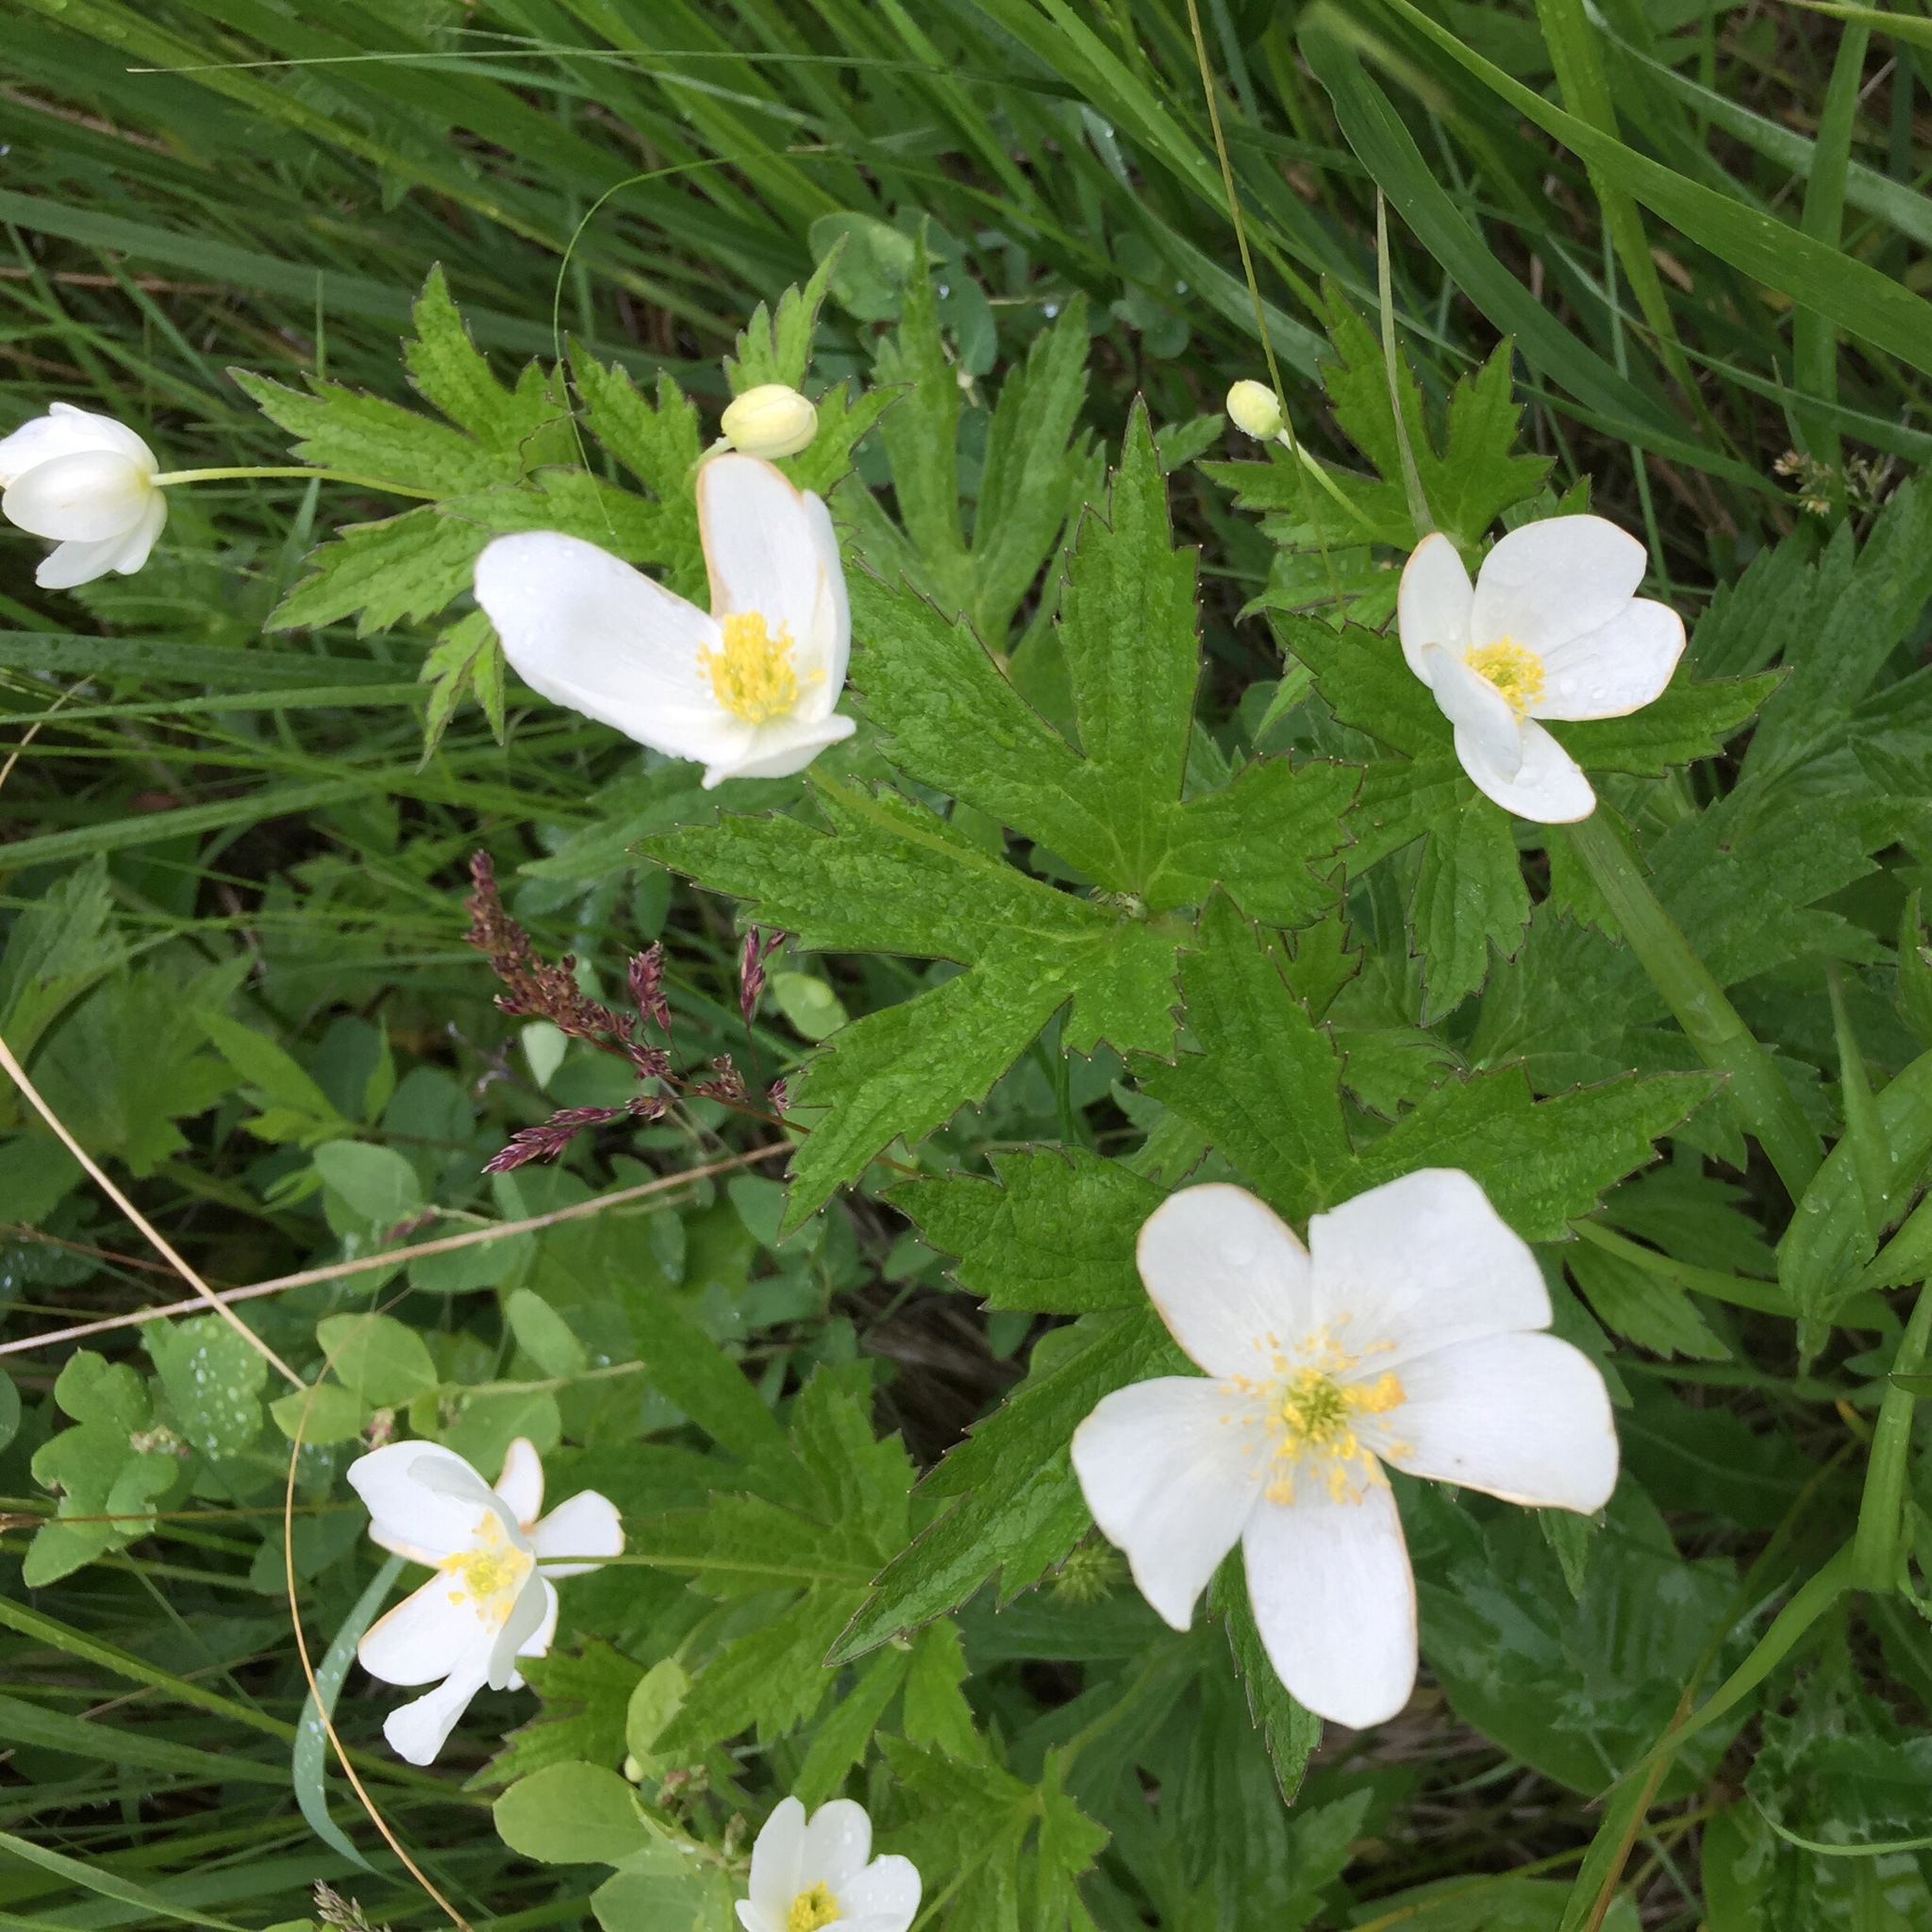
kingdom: Plantae
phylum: Tracheophyta
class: Magnoliopsida
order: Ranunculales
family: Ranunculaceae
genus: Anemonastrum
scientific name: Anemonastrum canadense
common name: Canada anemone
